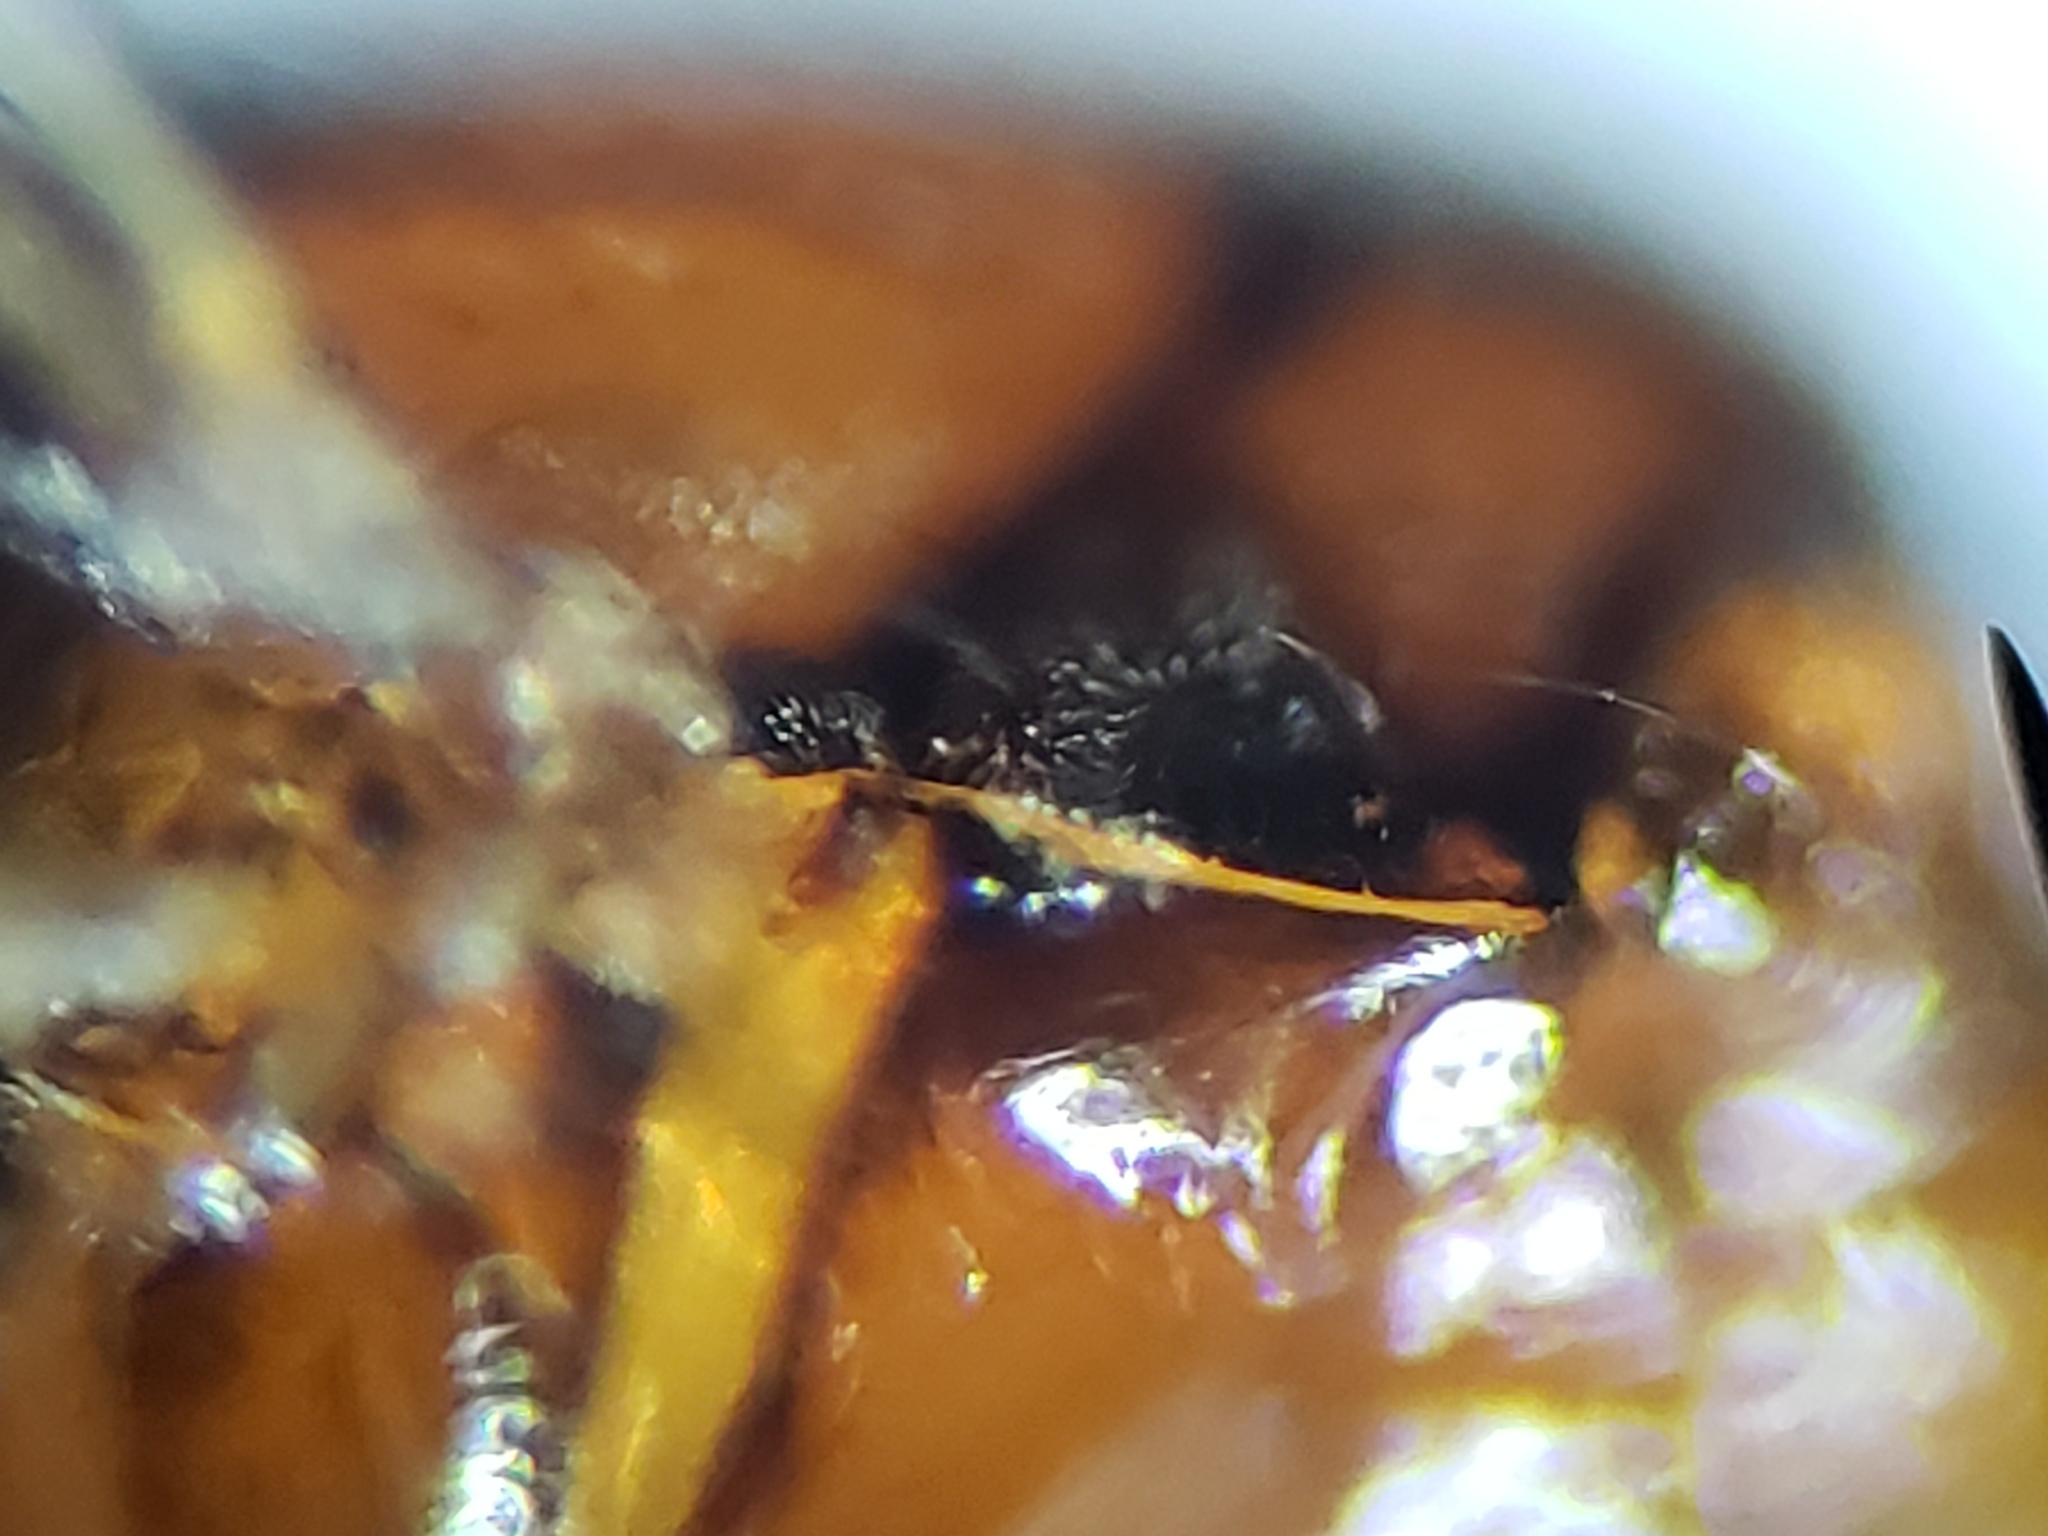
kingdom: Animalia
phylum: Arthropoda
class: Insecta
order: Diptera
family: Chloropidae
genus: Ceratobarys
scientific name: Ceratobarys eulophus
